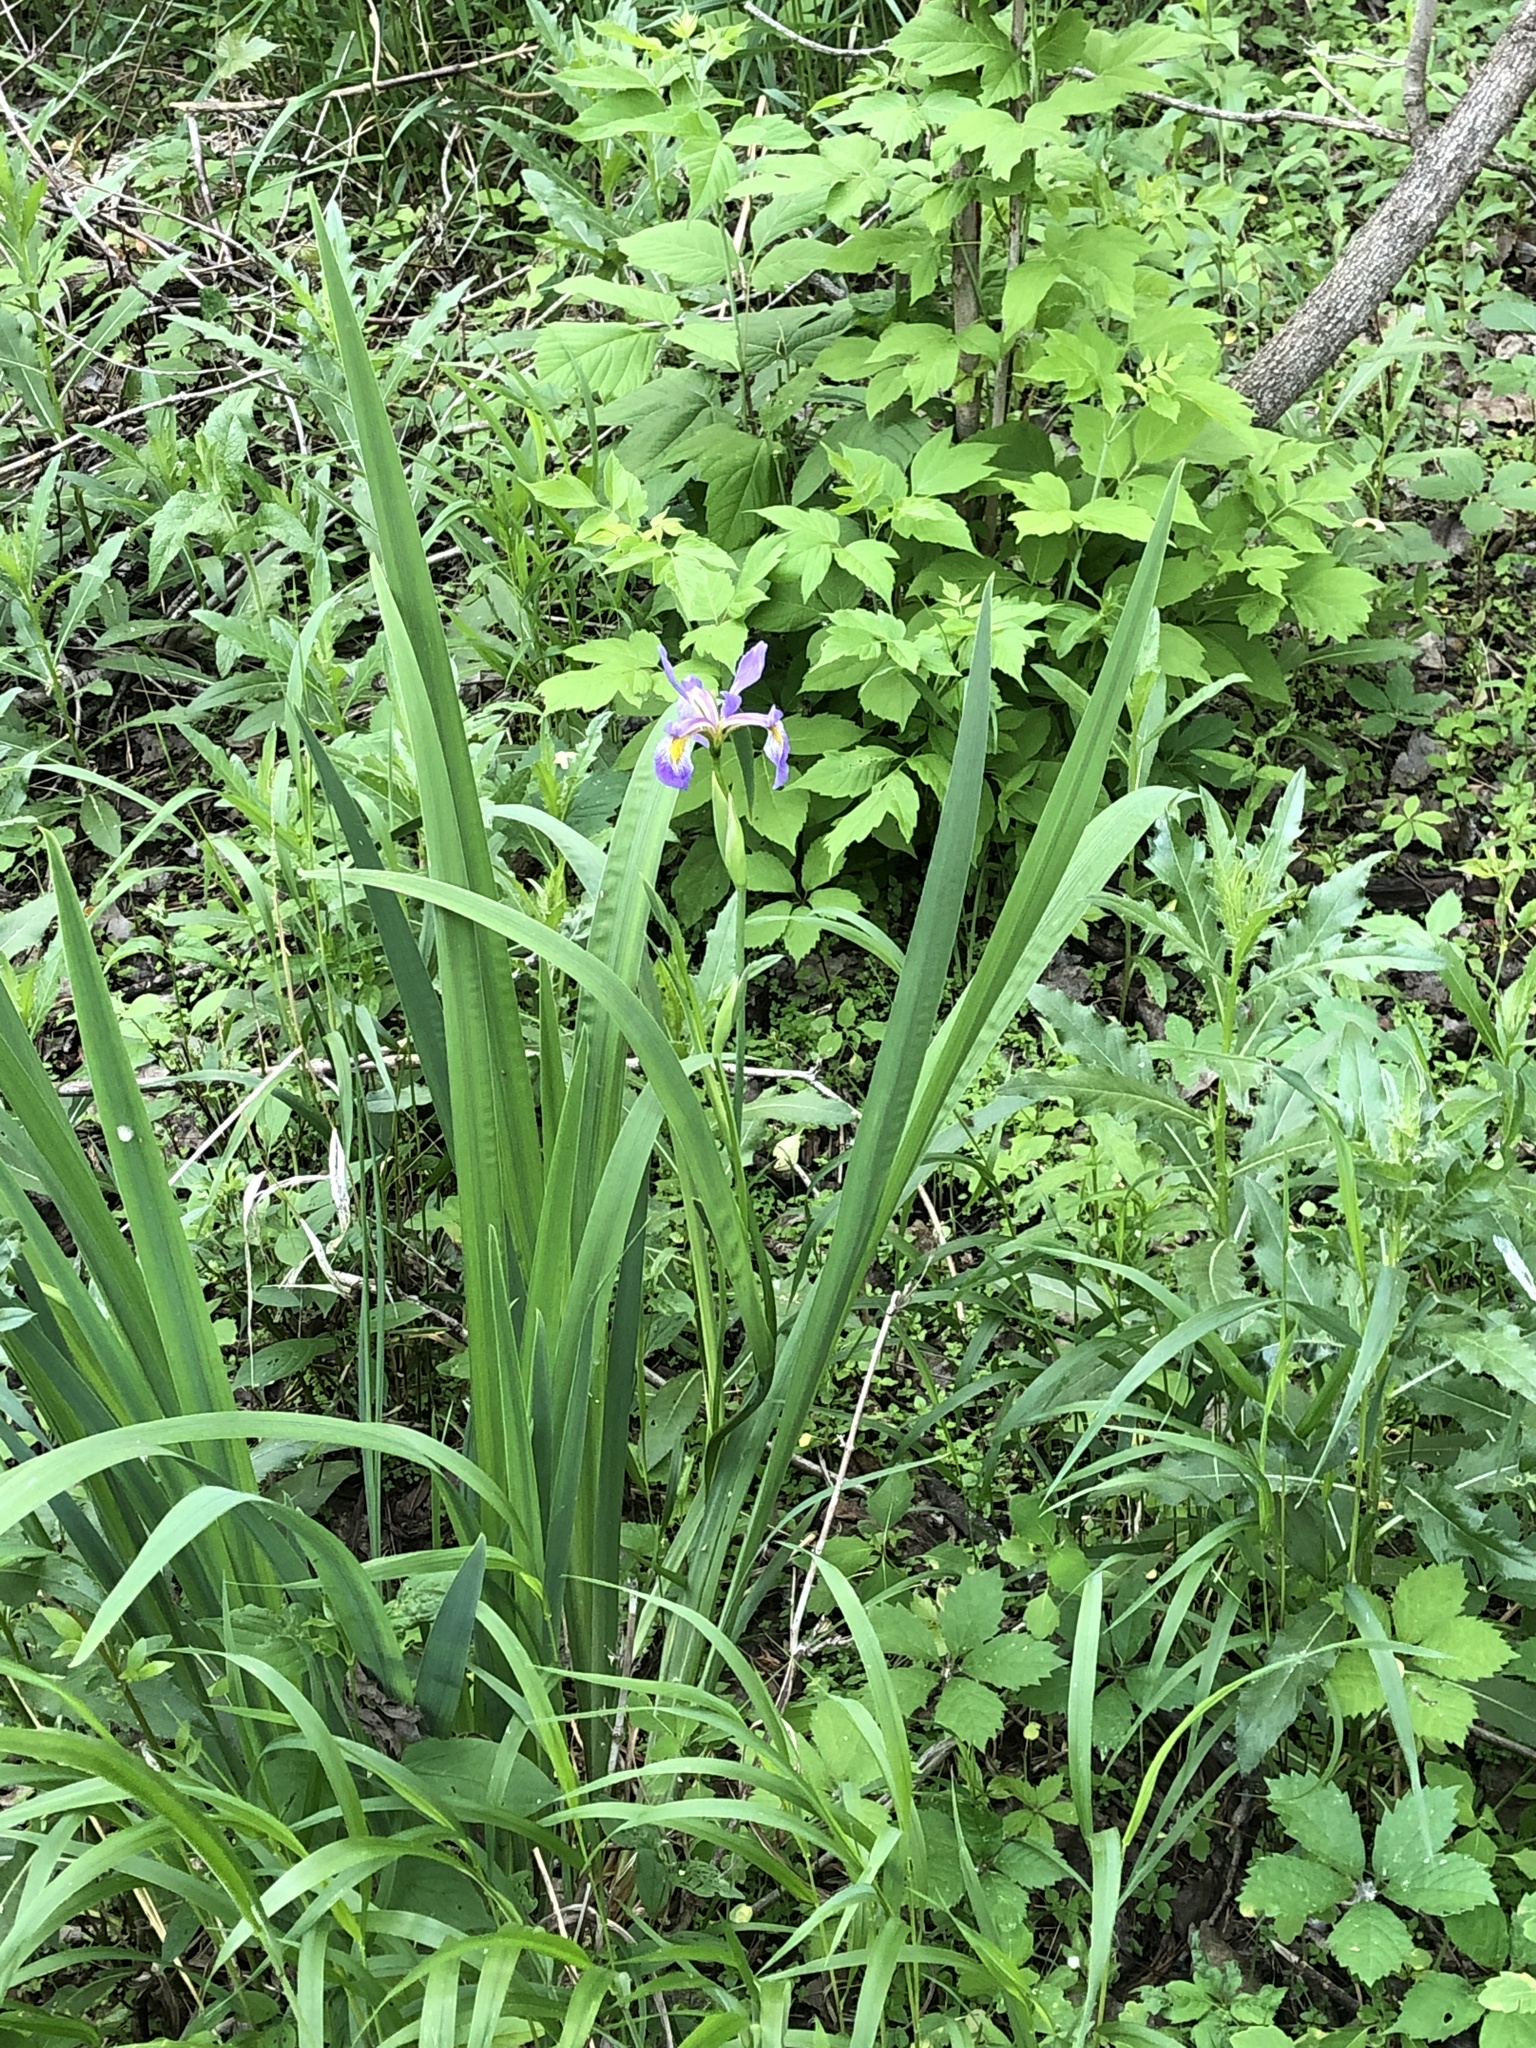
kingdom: Plantae
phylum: Tracheophyta
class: Liliopsida
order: Asparagales
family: Iridaceae
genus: Iris
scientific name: Iris virginica
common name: Southern blue flag
